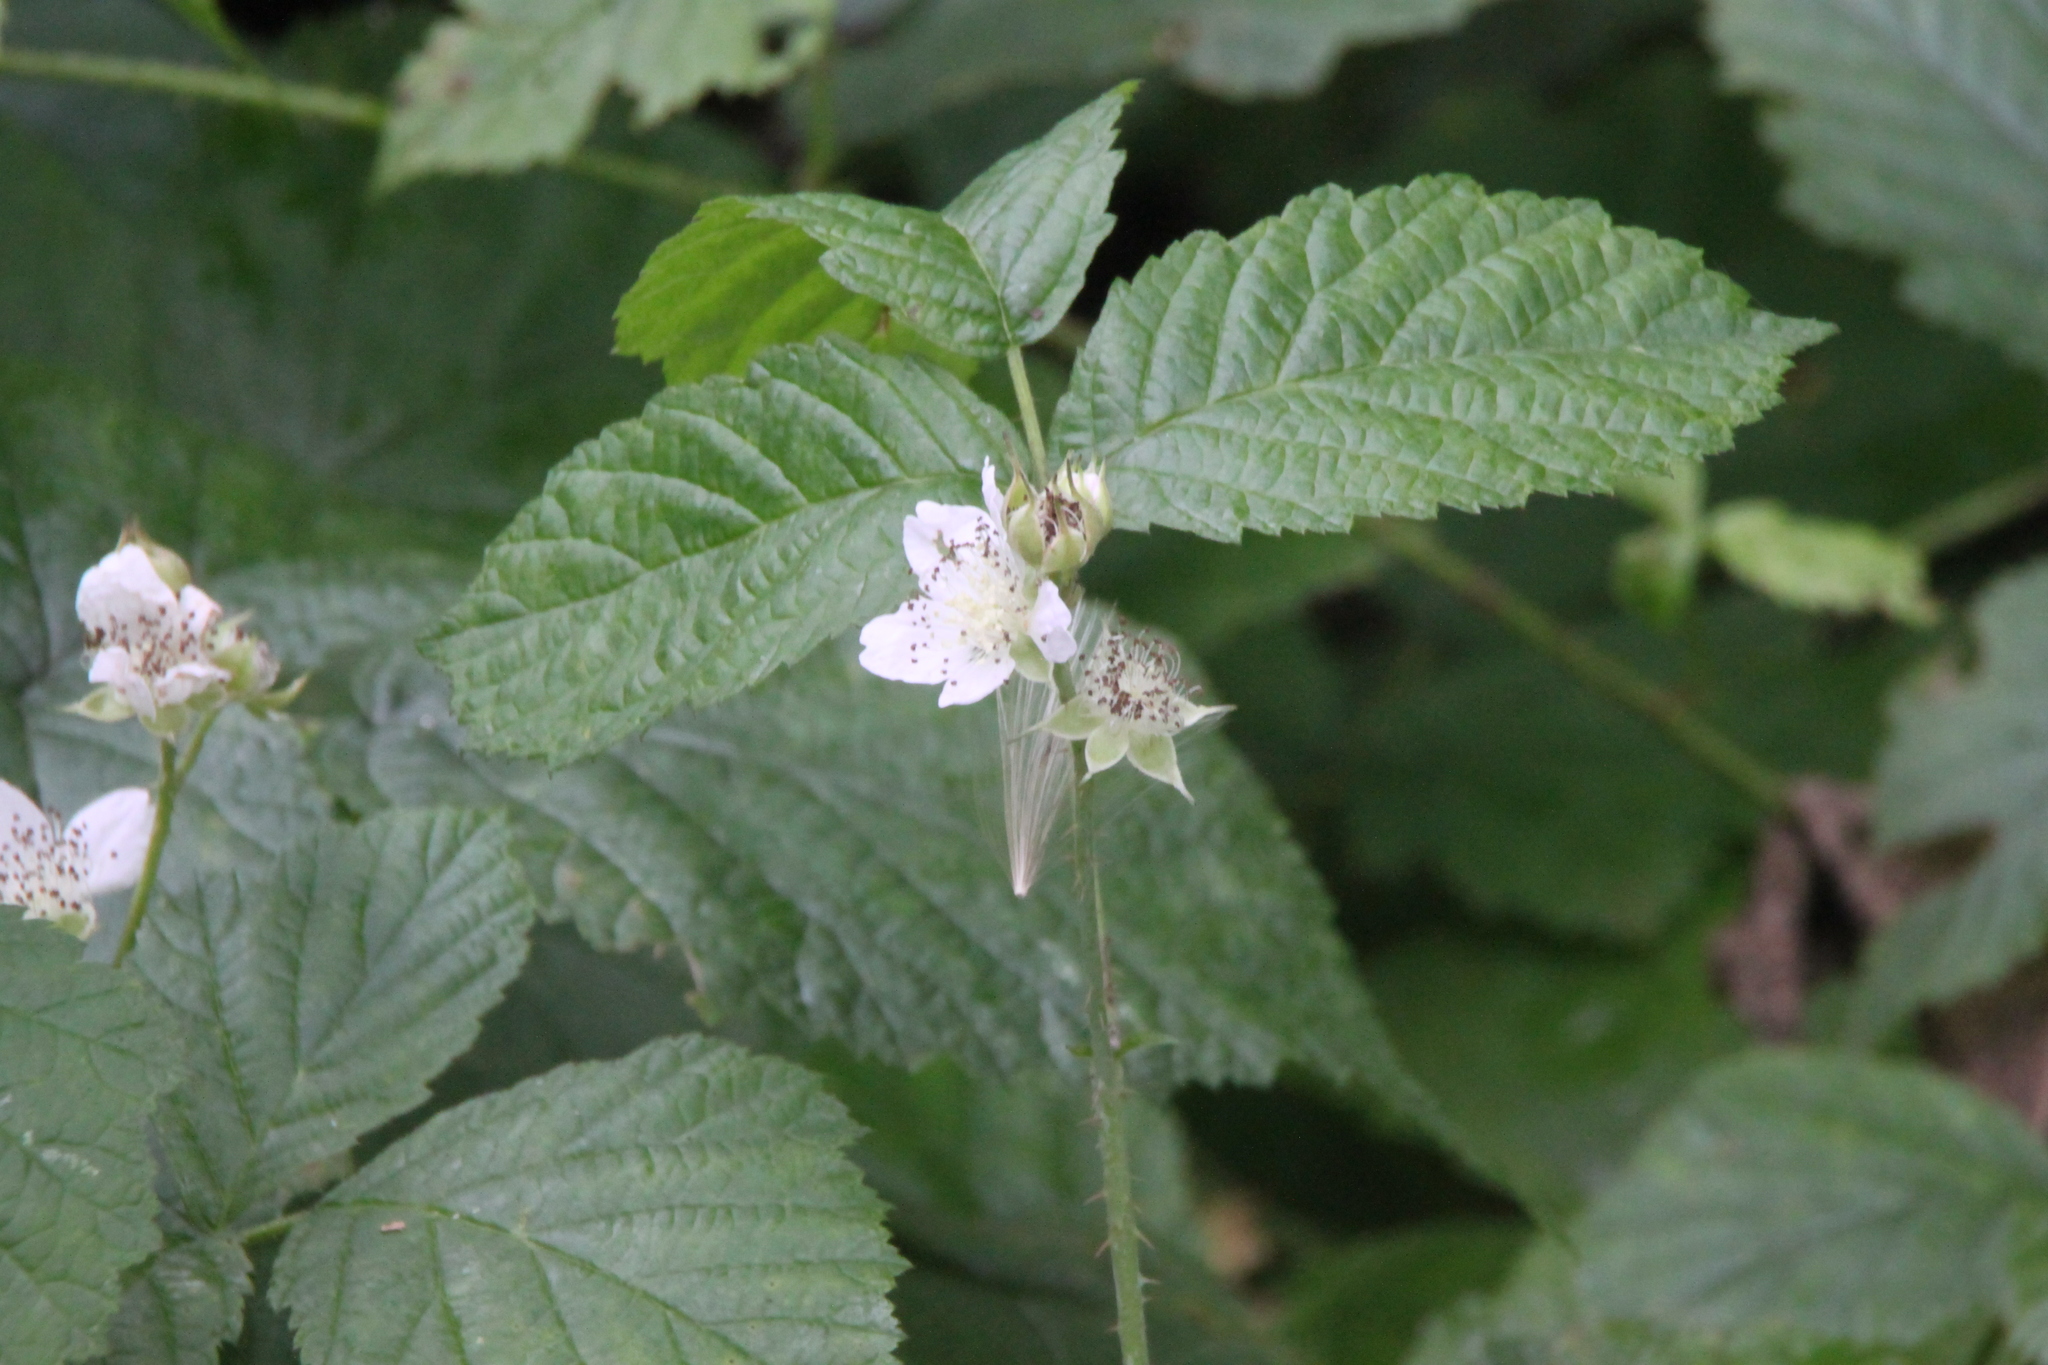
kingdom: Plantae
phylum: Tracheophyta
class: Magnoliopsida
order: Rosales
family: Rosaceae
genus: Rubus
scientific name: Rubus caesius
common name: Dewberry
